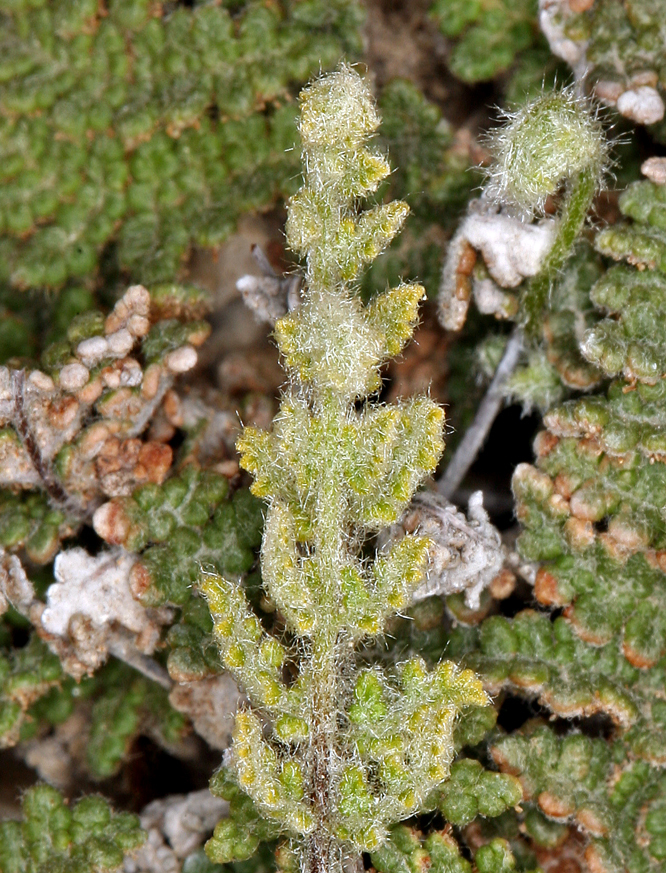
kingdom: Plantae
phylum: Tracheophyta
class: Polypodiopsida
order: Polypodiales
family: Pteridaceae
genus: Myriopteris
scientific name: Myriopteris gracilis
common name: Fee's lip fern
